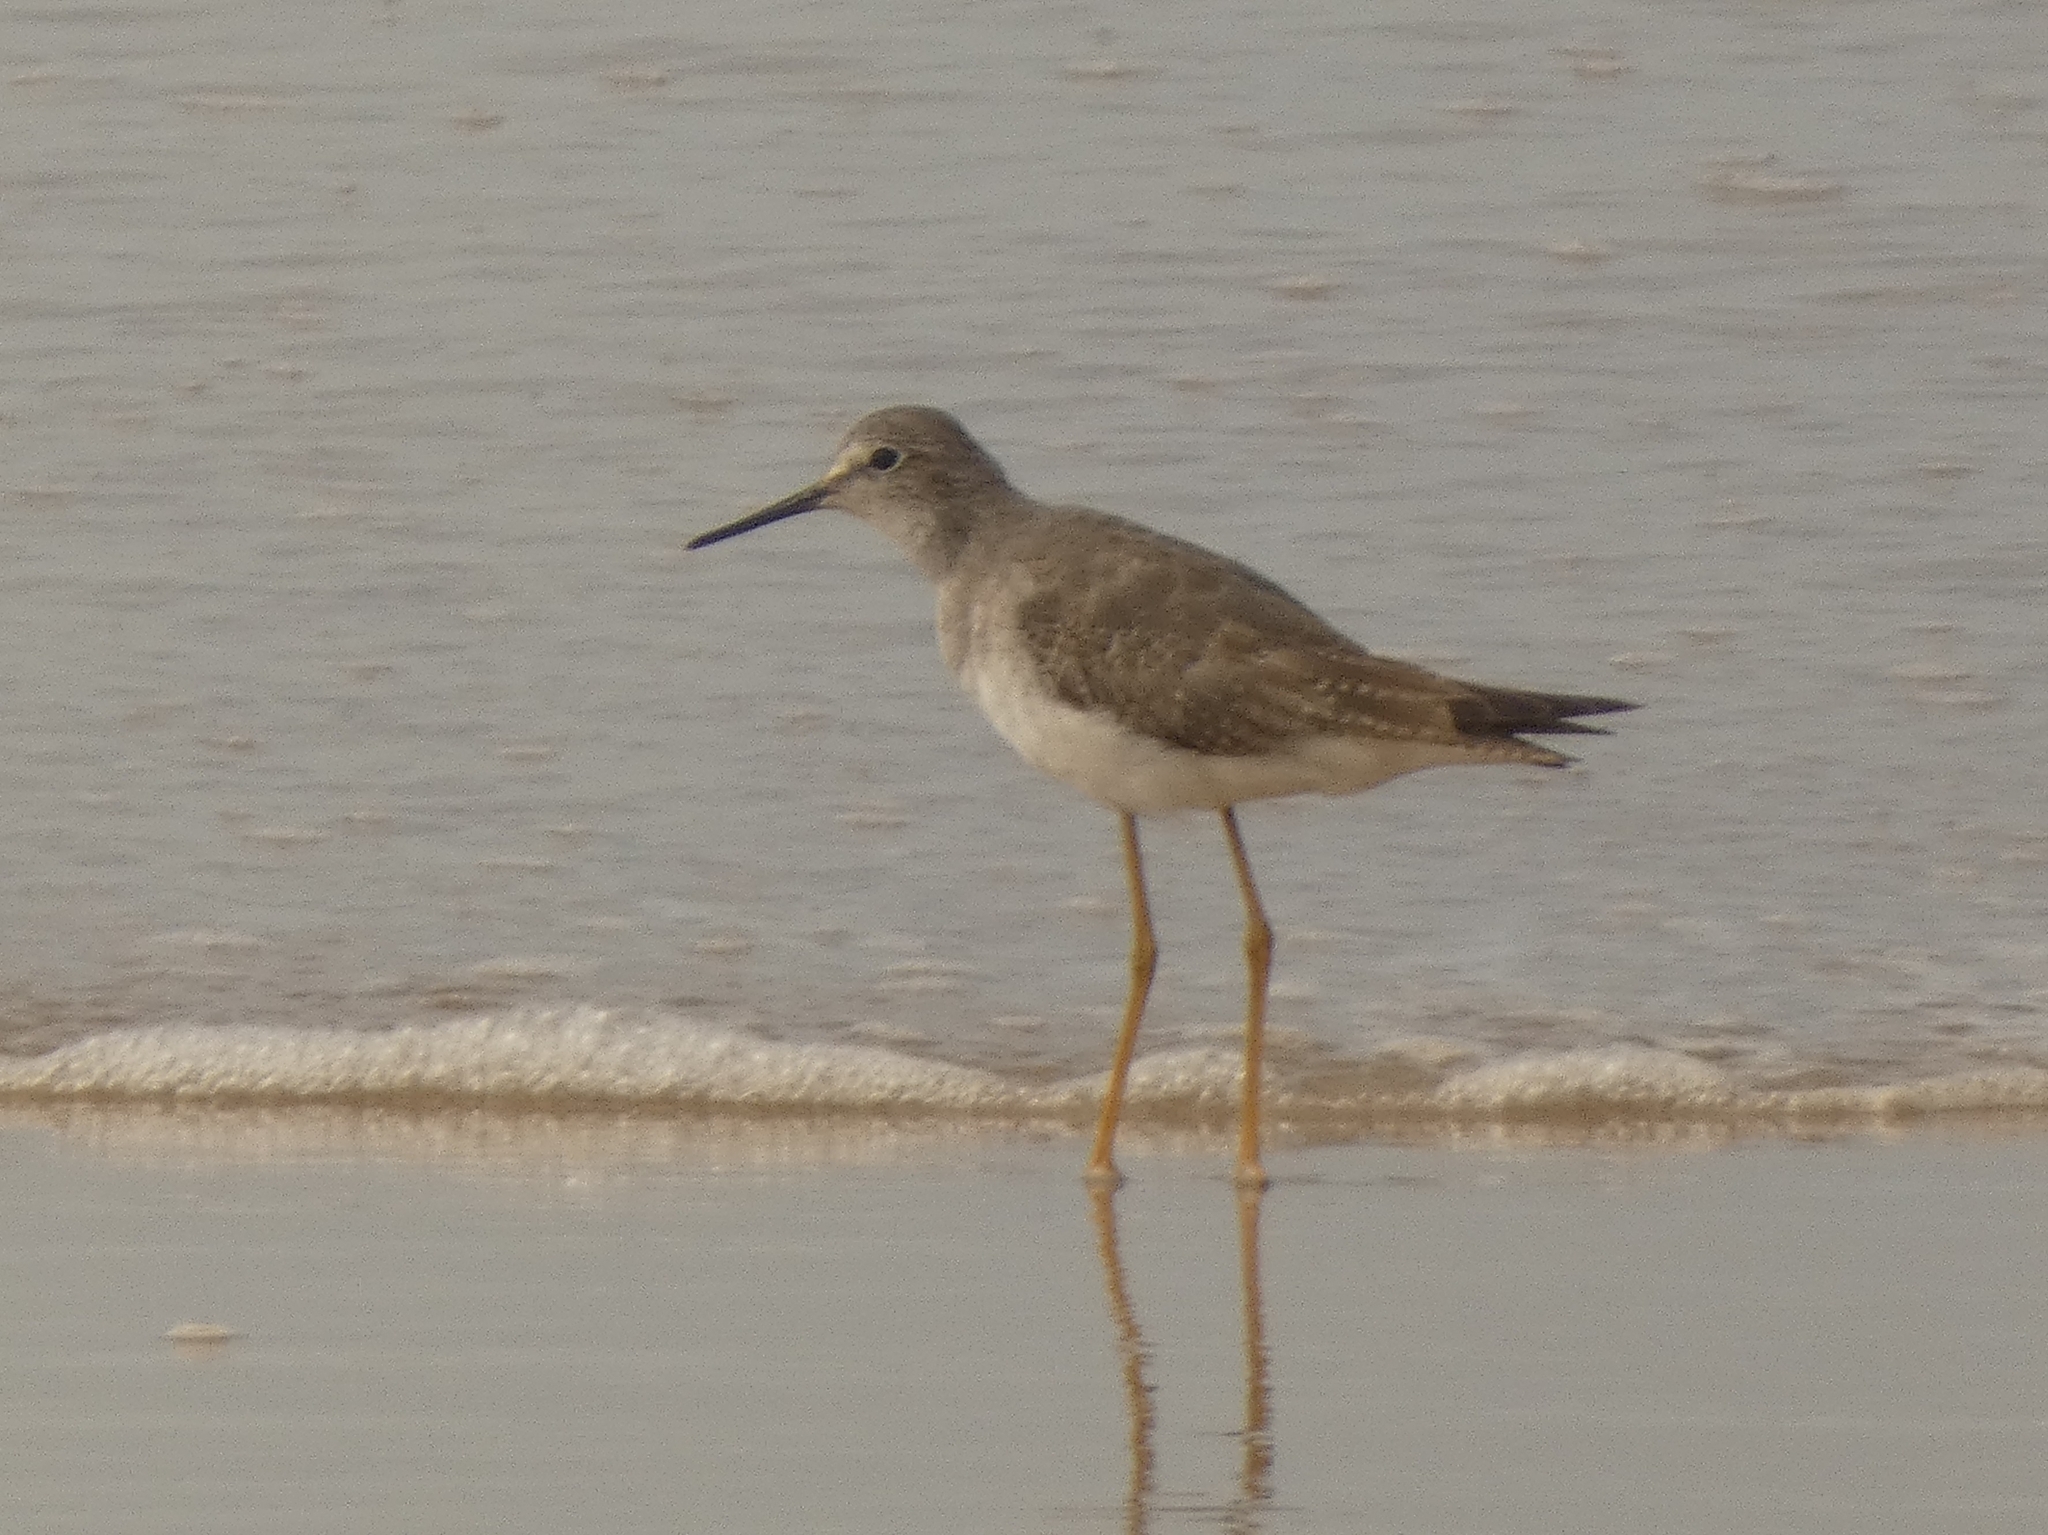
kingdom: Animalia
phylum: Chordata
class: Aves
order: Charadriiformes
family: Scolopacidae
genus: Tringa
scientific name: Tringa flavipes
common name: Lesser yellowlegs
